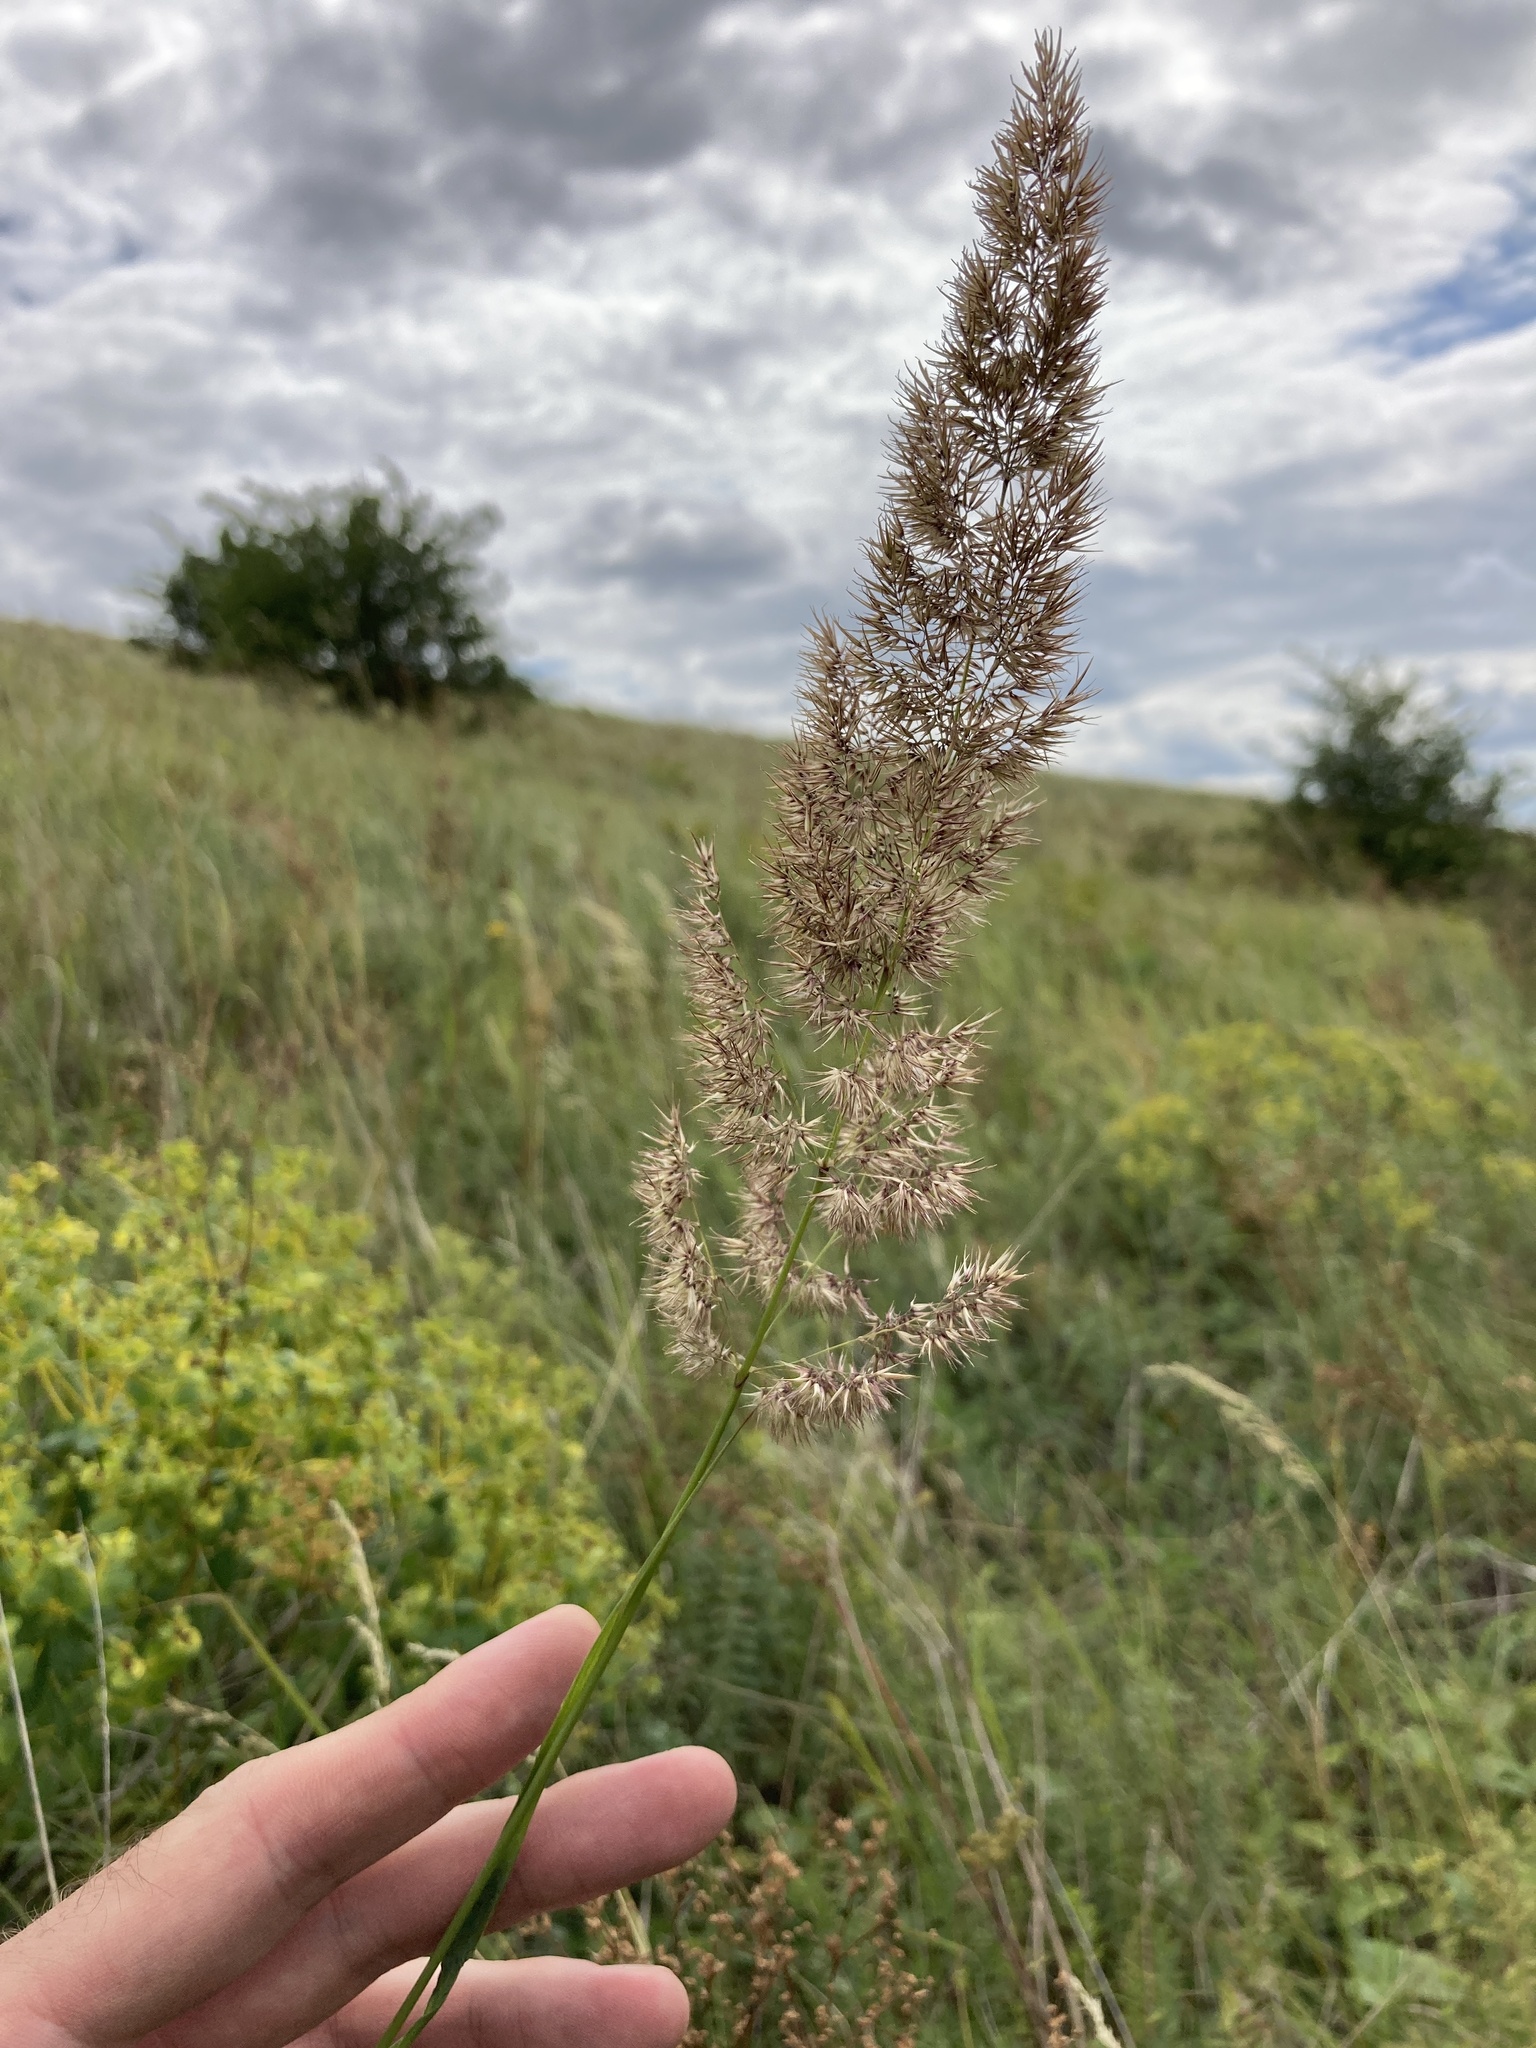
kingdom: Plantae
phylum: Tracheophyta
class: Liliopsida
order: Poales
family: Poaceae
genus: Calamagrostis
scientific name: Calamagrostis epigejos
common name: Wood small-reed
